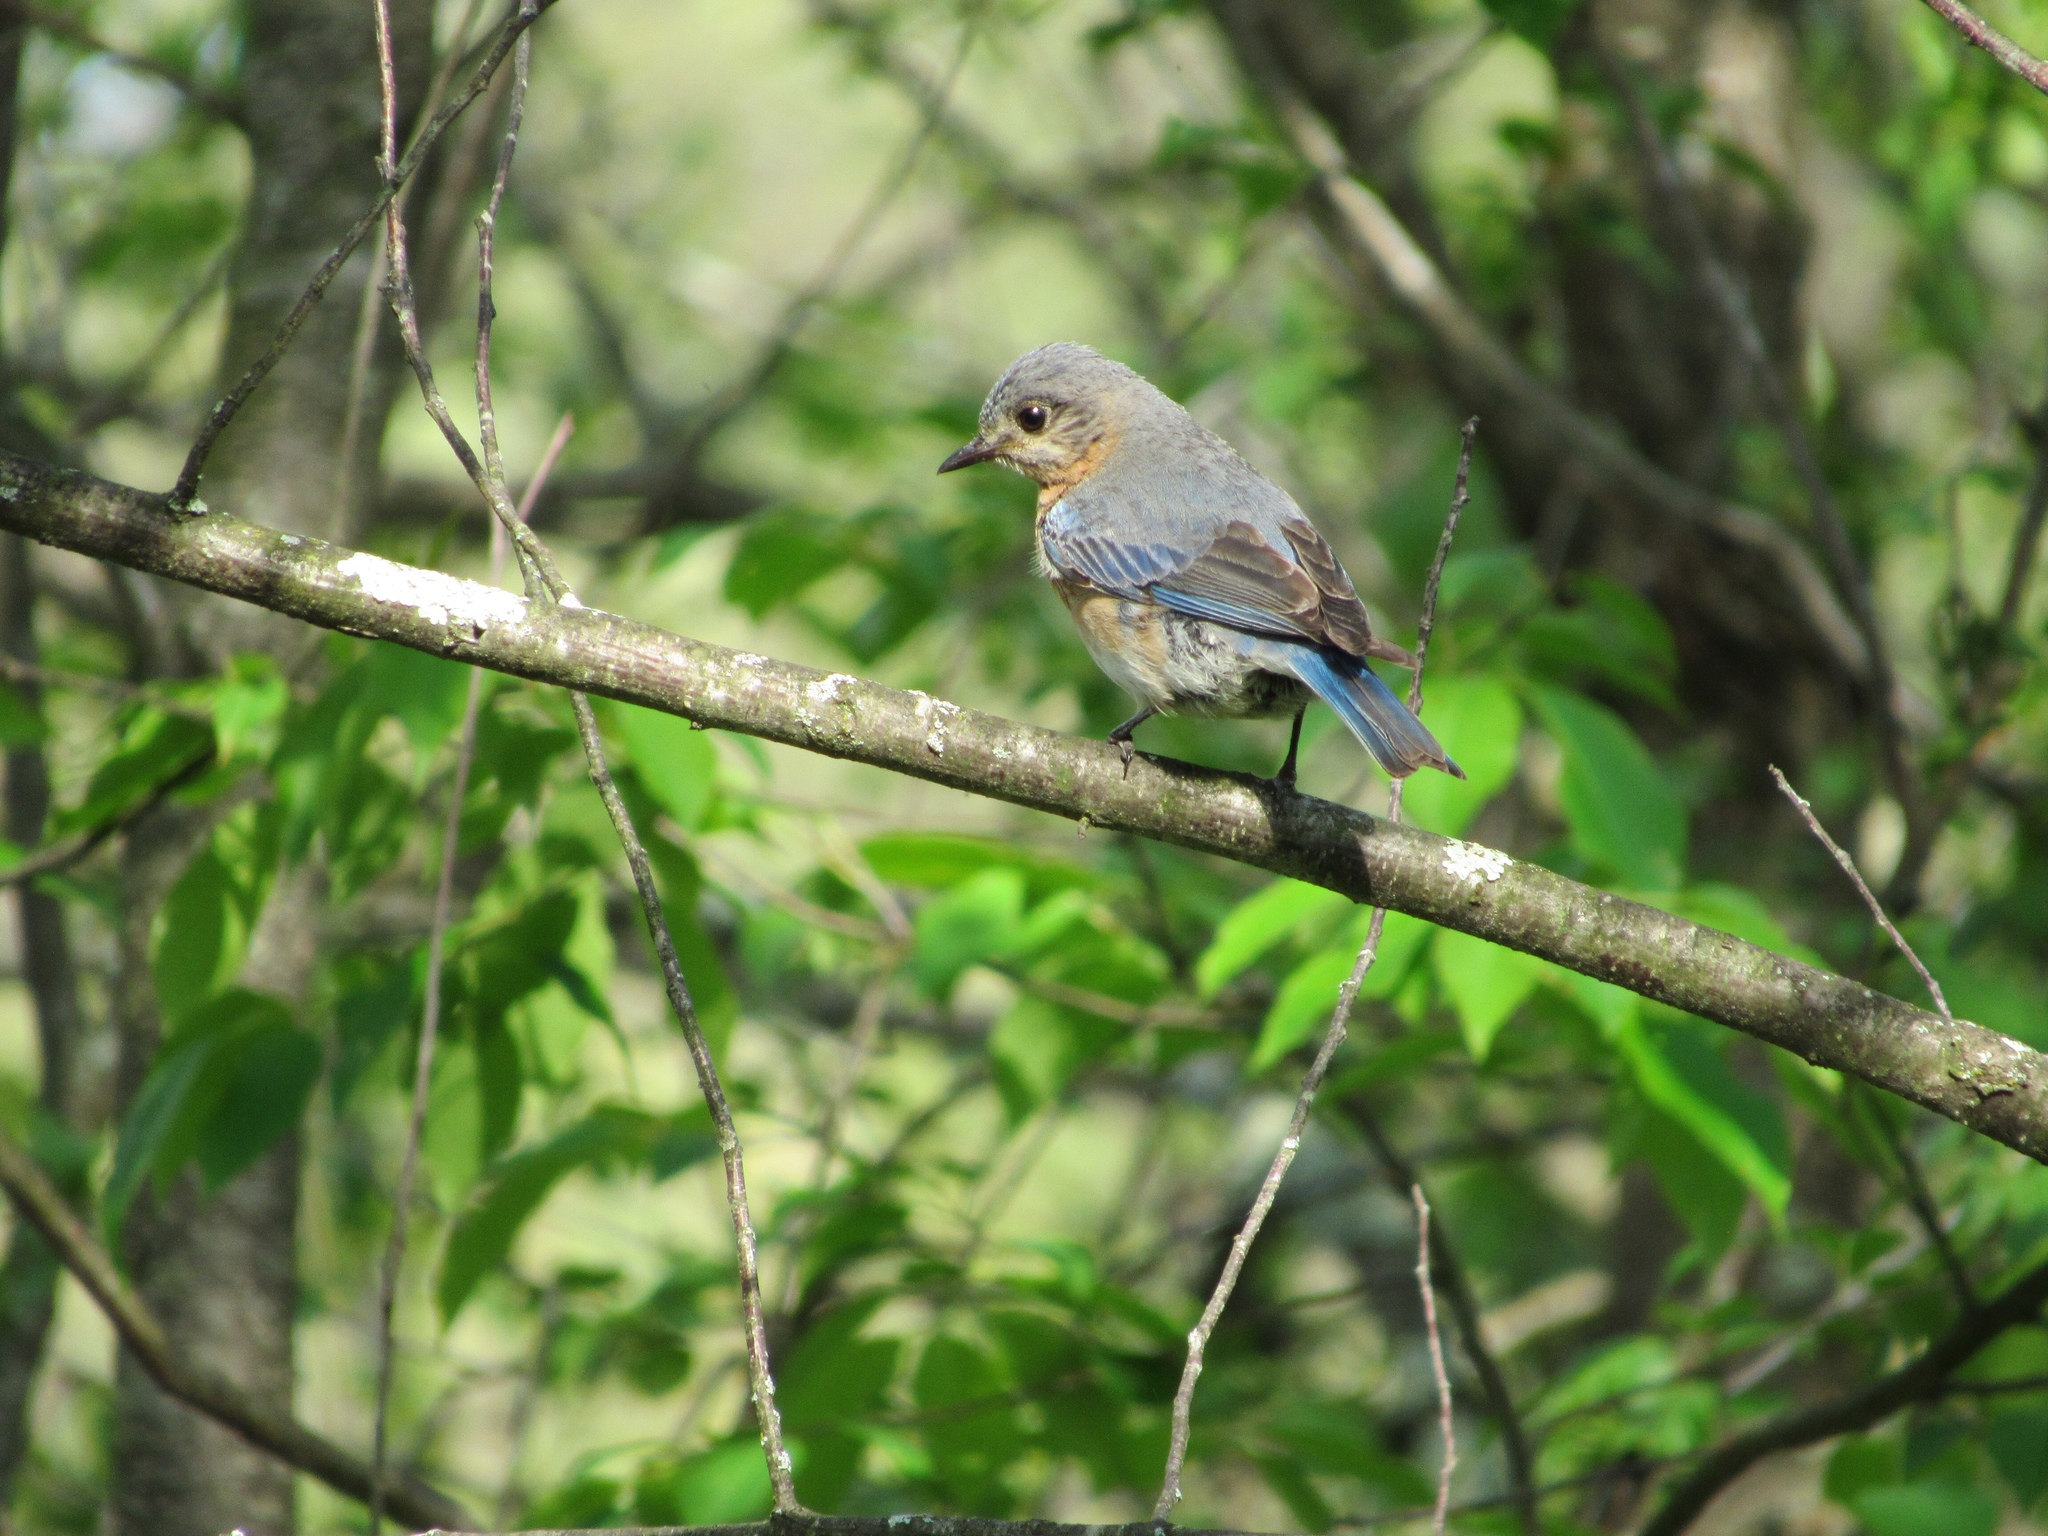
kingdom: Animalia
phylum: Chordata
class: Aves
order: Passeriformes
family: Turdidae
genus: Sialia
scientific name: Sialia sialis
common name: Eastern bluebird
